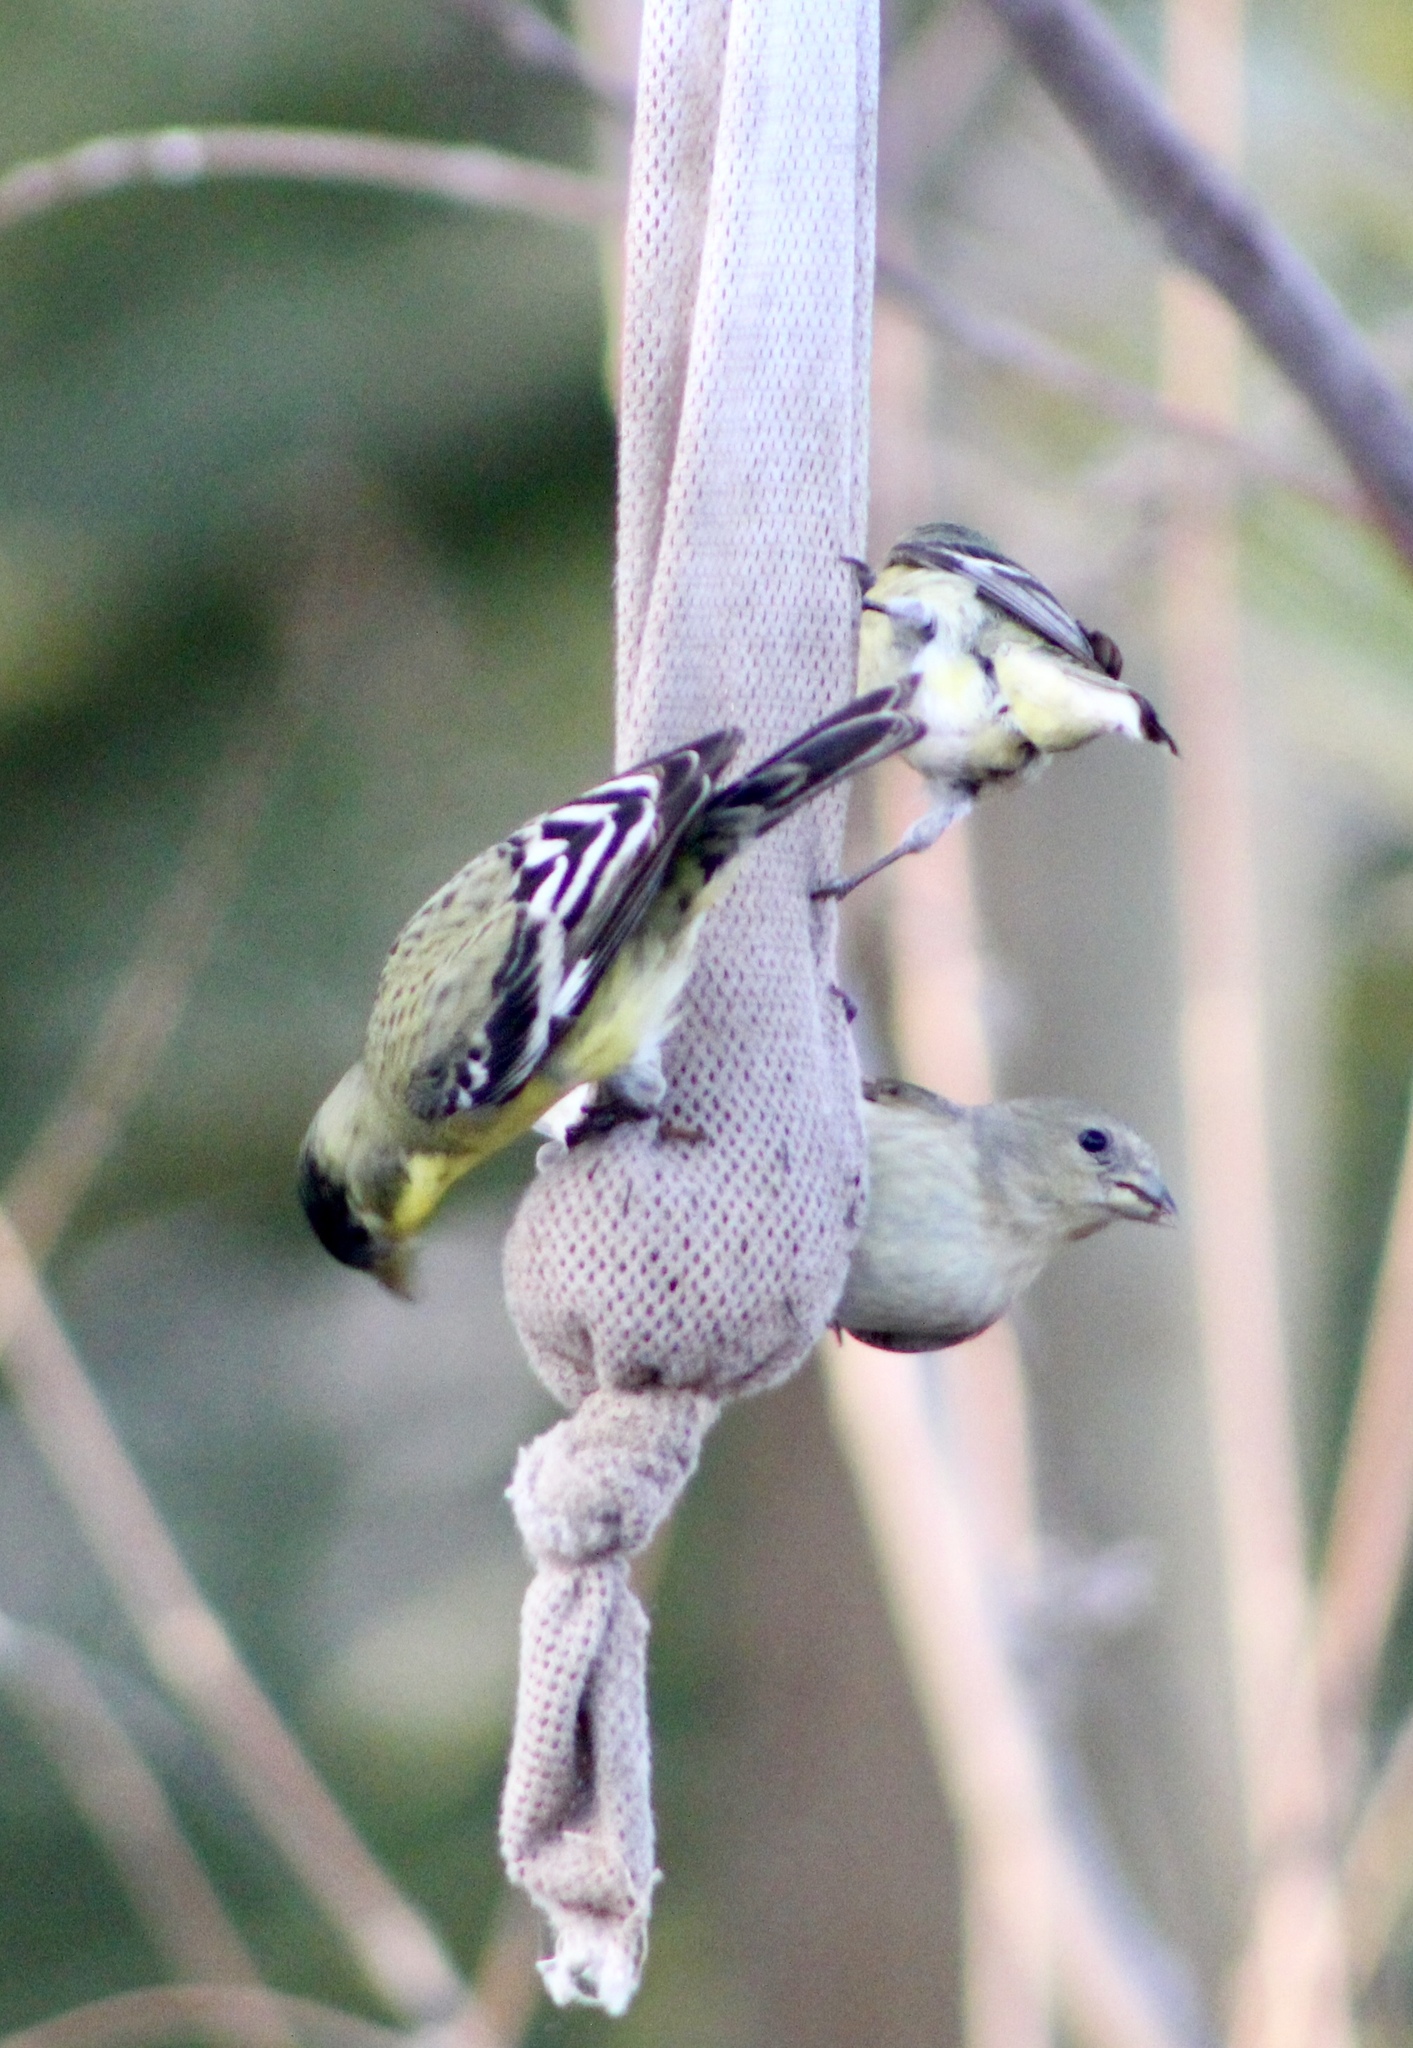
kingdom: Animalia
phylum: Chordata
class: Aves
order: Passeriformes
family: Fringillidae
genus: Spinus
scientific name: Spinus psaltria
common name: Lesser goldfinch
